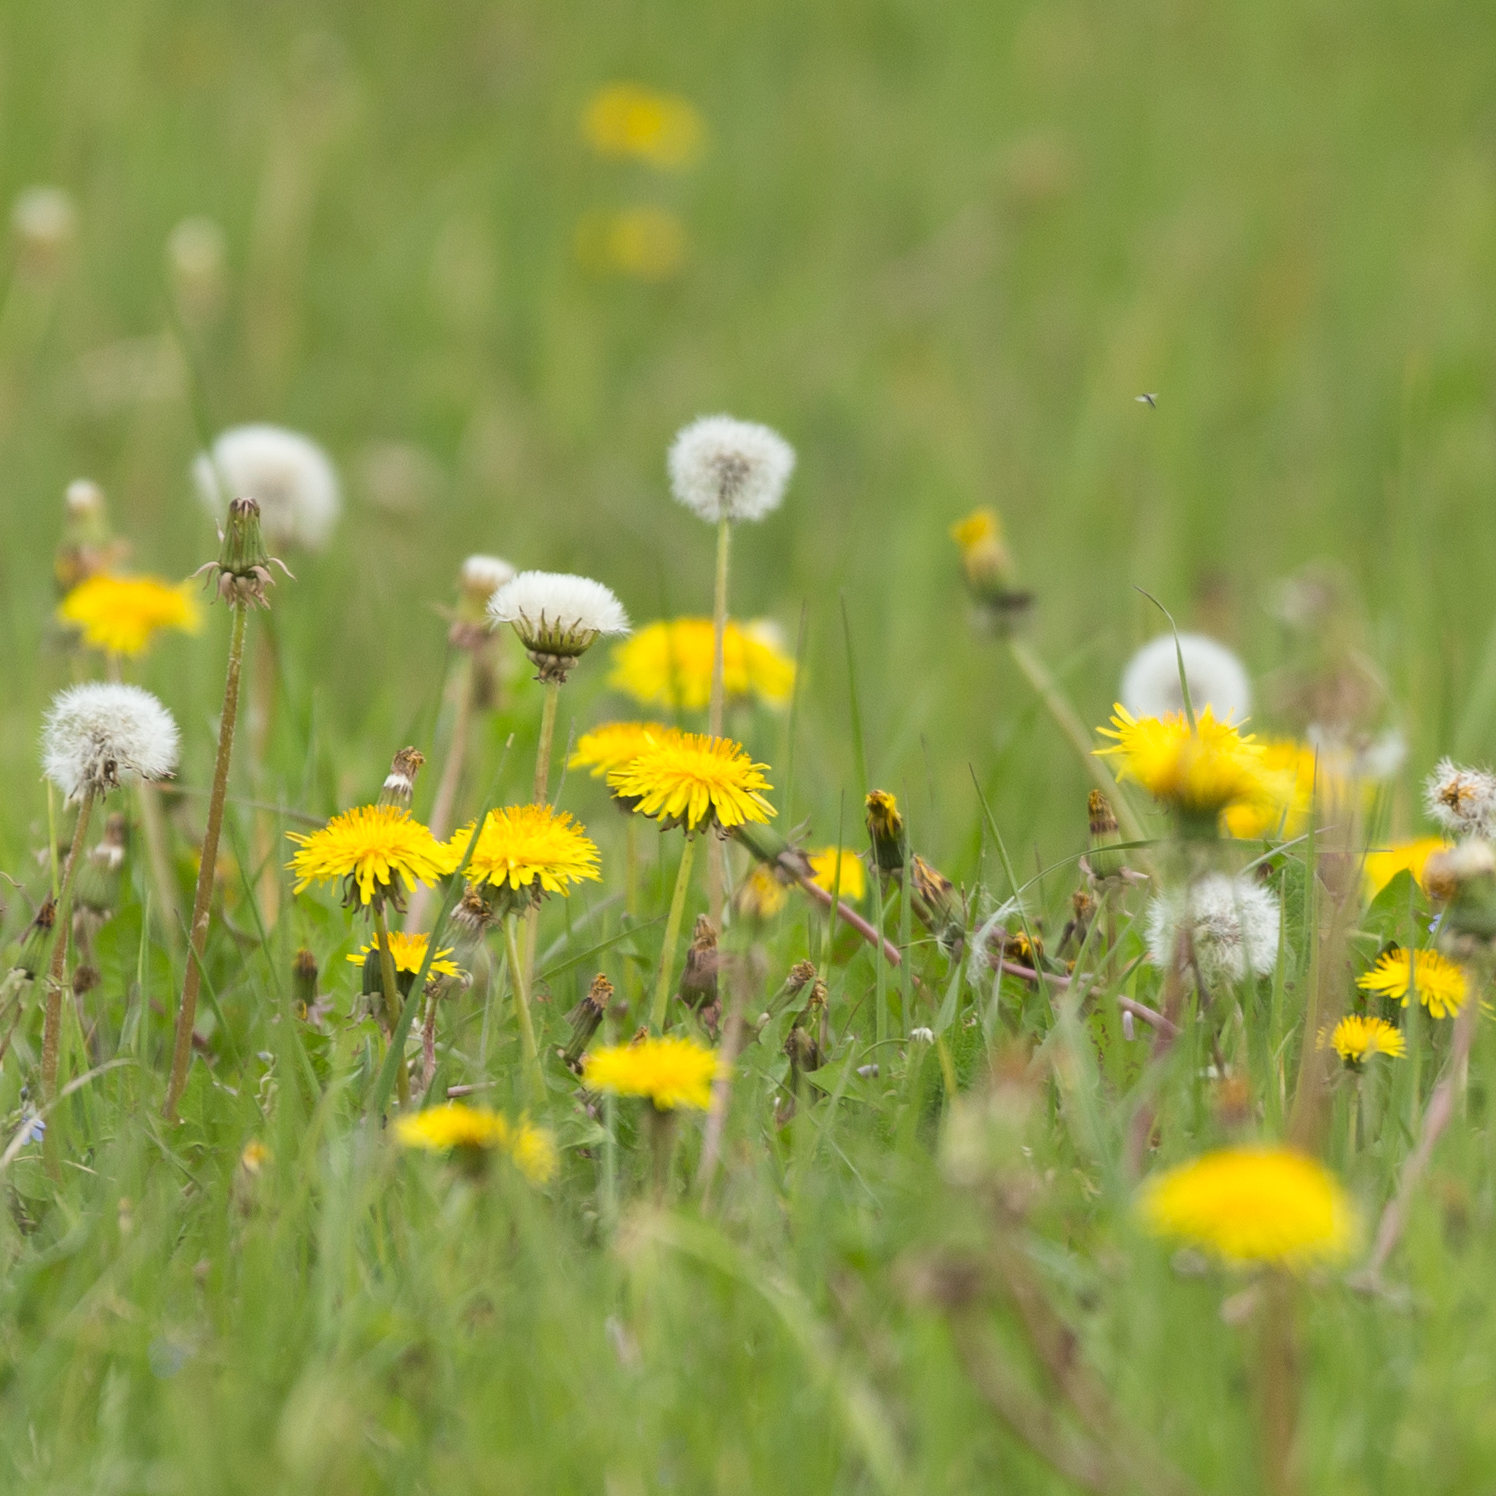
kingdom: Plantae
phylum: Tracheophyta
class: Magnoliopsida
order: Asterales
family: Asteraceae
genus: Taraxacum
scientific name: Taraxacum officinale
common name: Common dandelion
